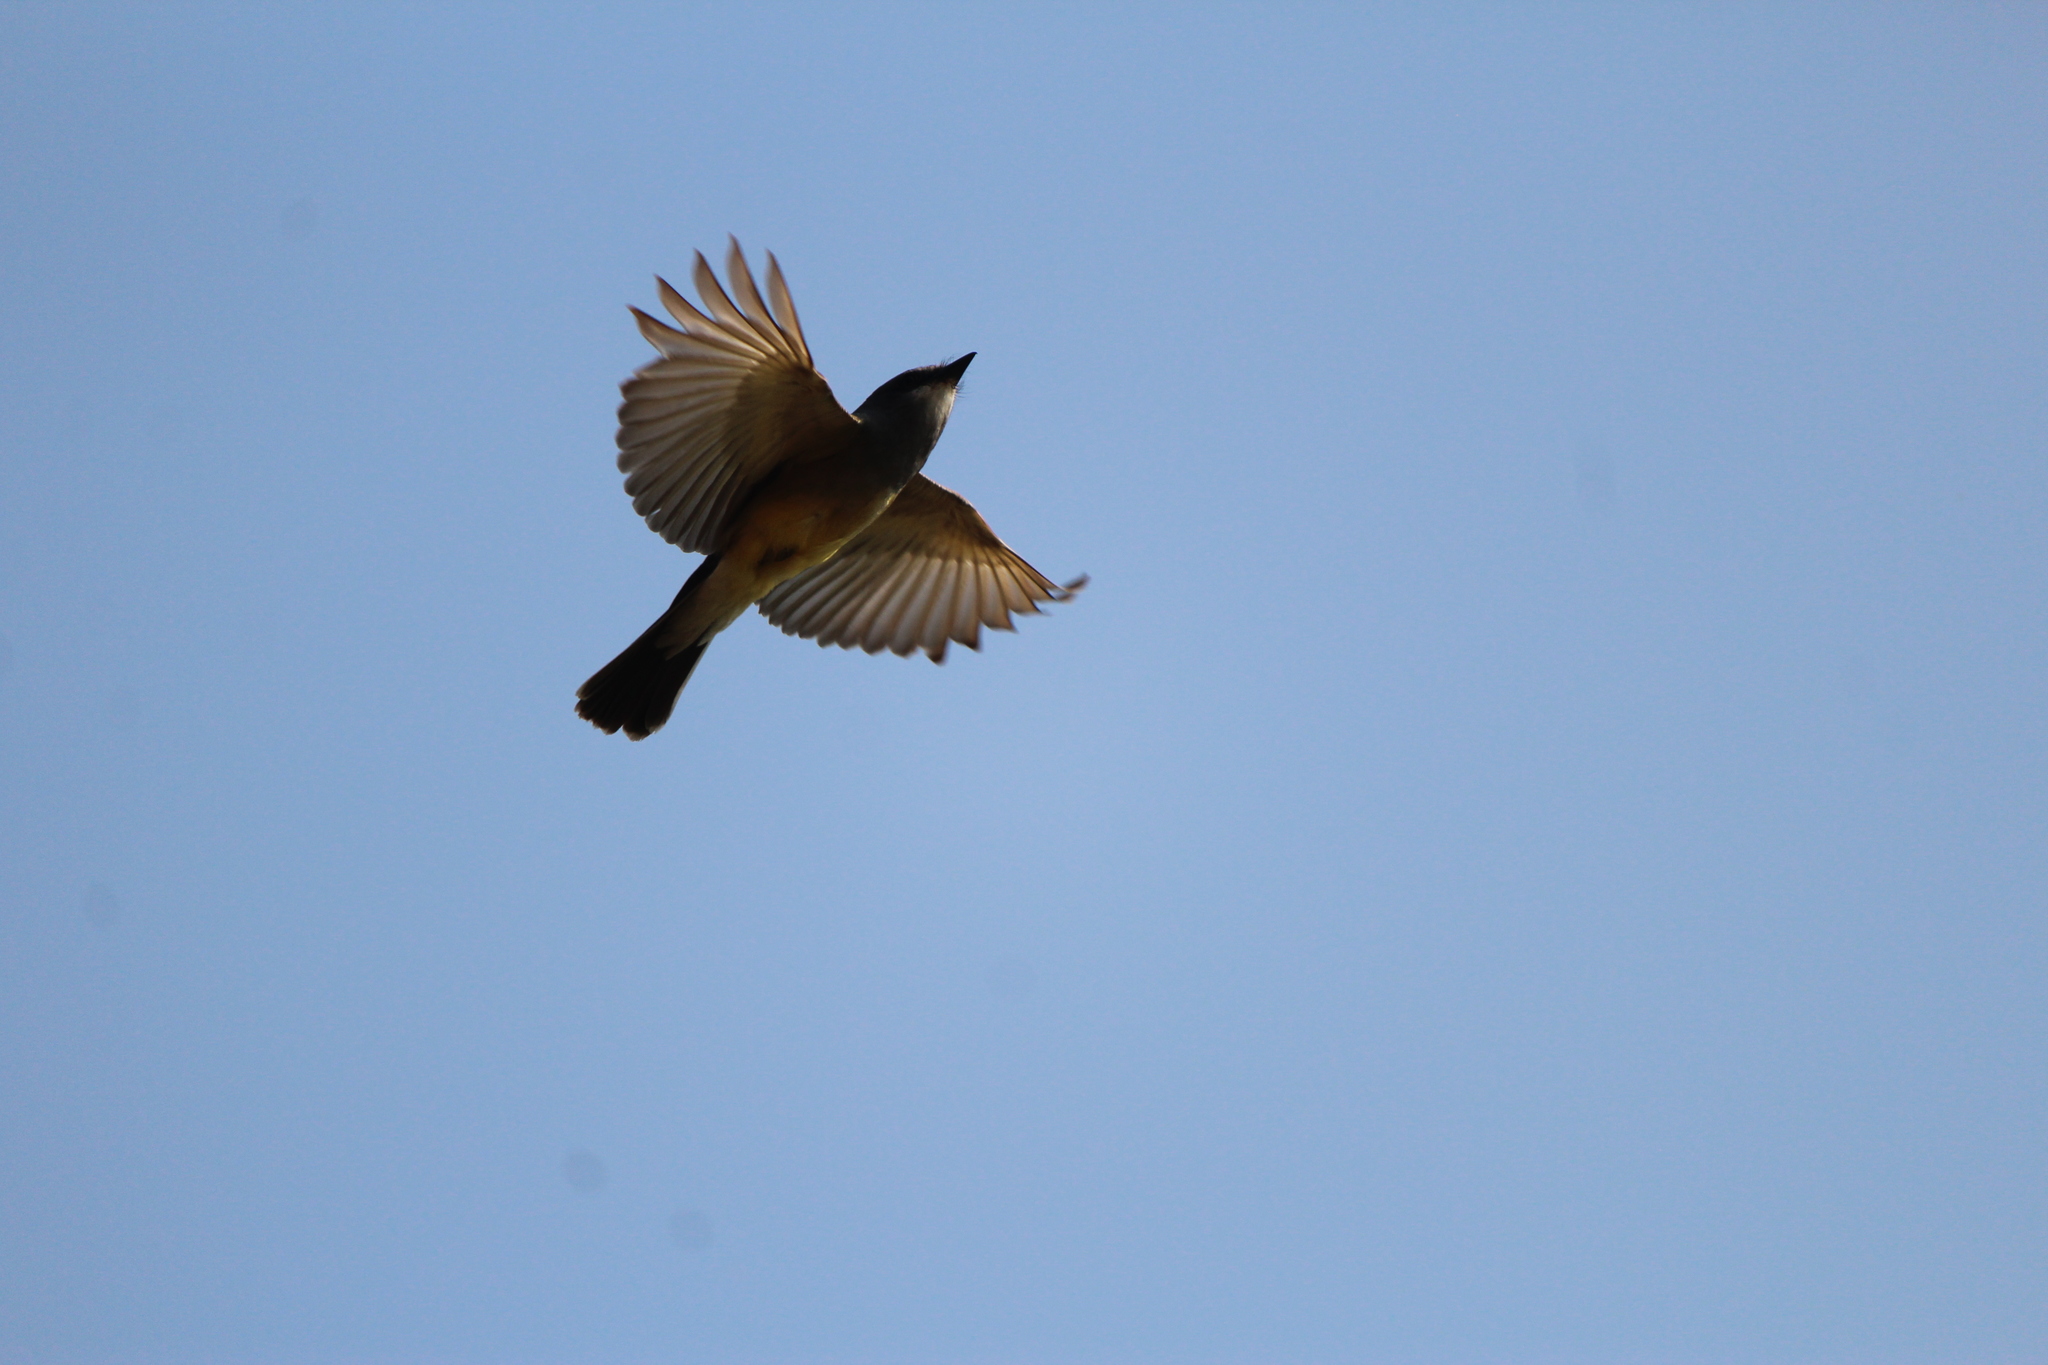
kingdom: Animalia
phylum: Chordata
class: Aves
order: Passeriformes
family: Tyrannidae
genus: Tyrannus
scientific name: Tyrannus vociferans
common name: Cassin's kingbird
